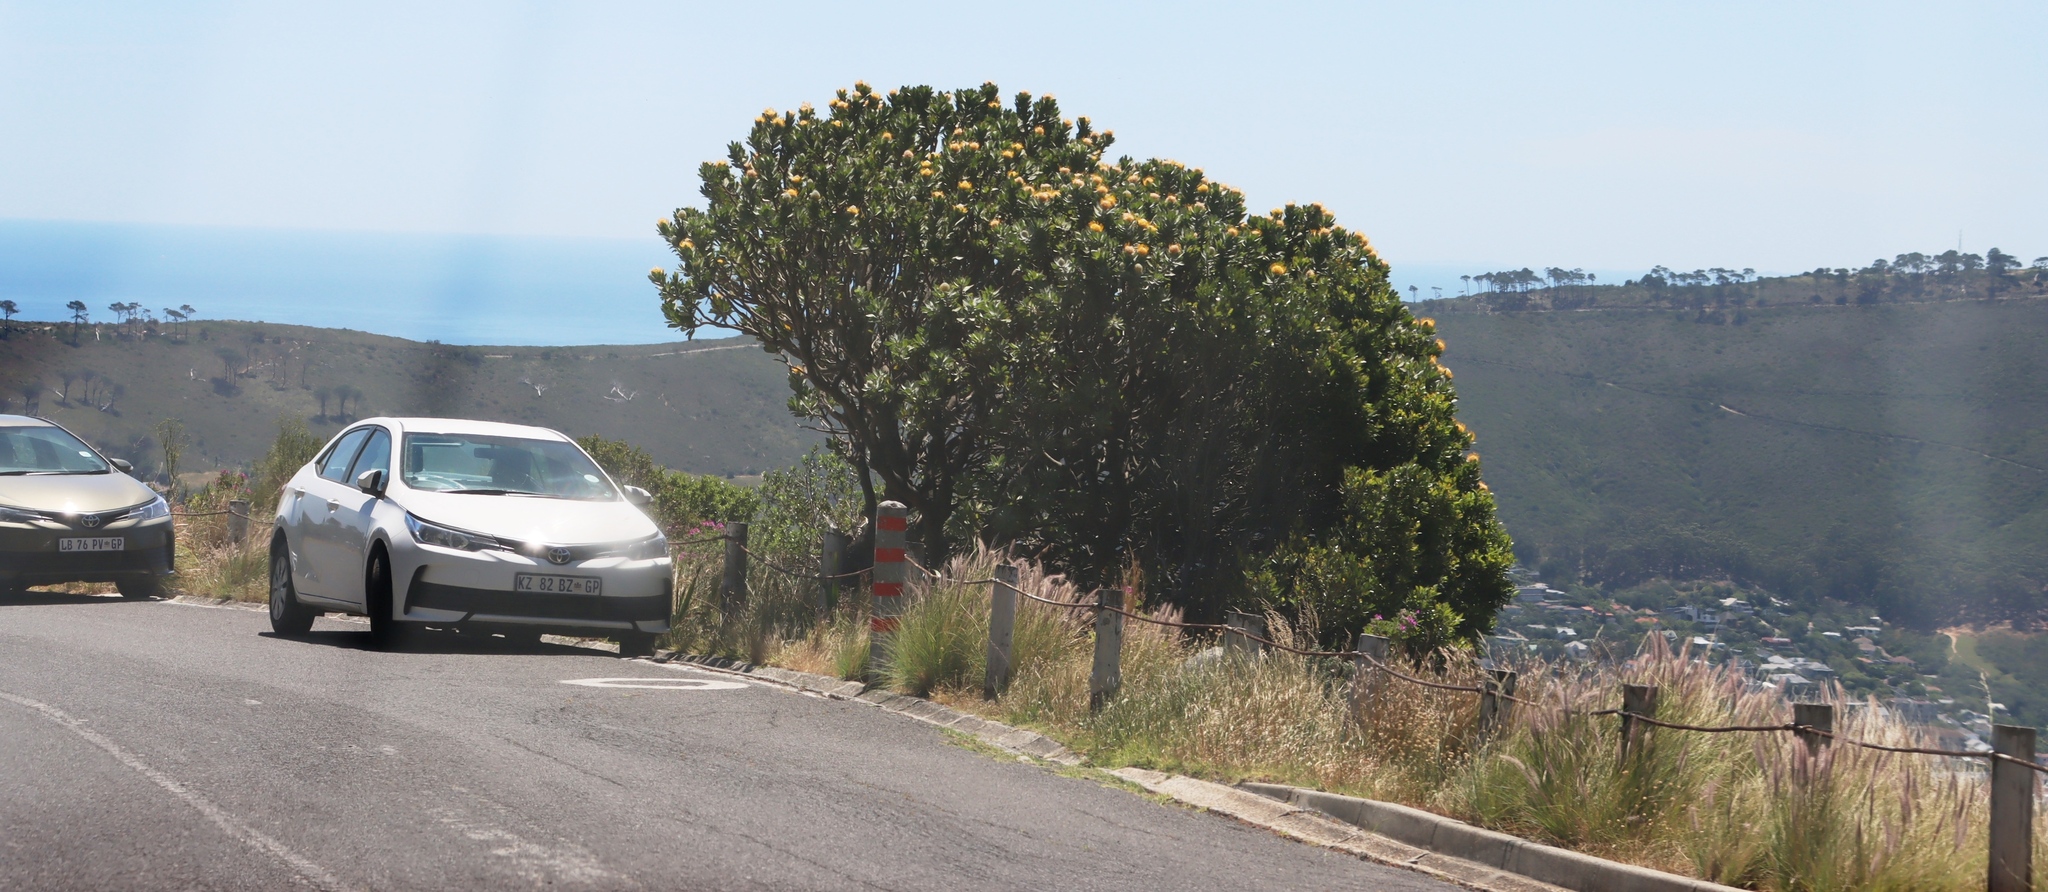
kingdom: Plantae
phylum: Tracheophyta
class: Magnoliopsida
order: Proteales
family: Proteaceae
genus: Leucospermum
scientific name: Leucospermum conocarpodendron
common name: Tree pincushion
